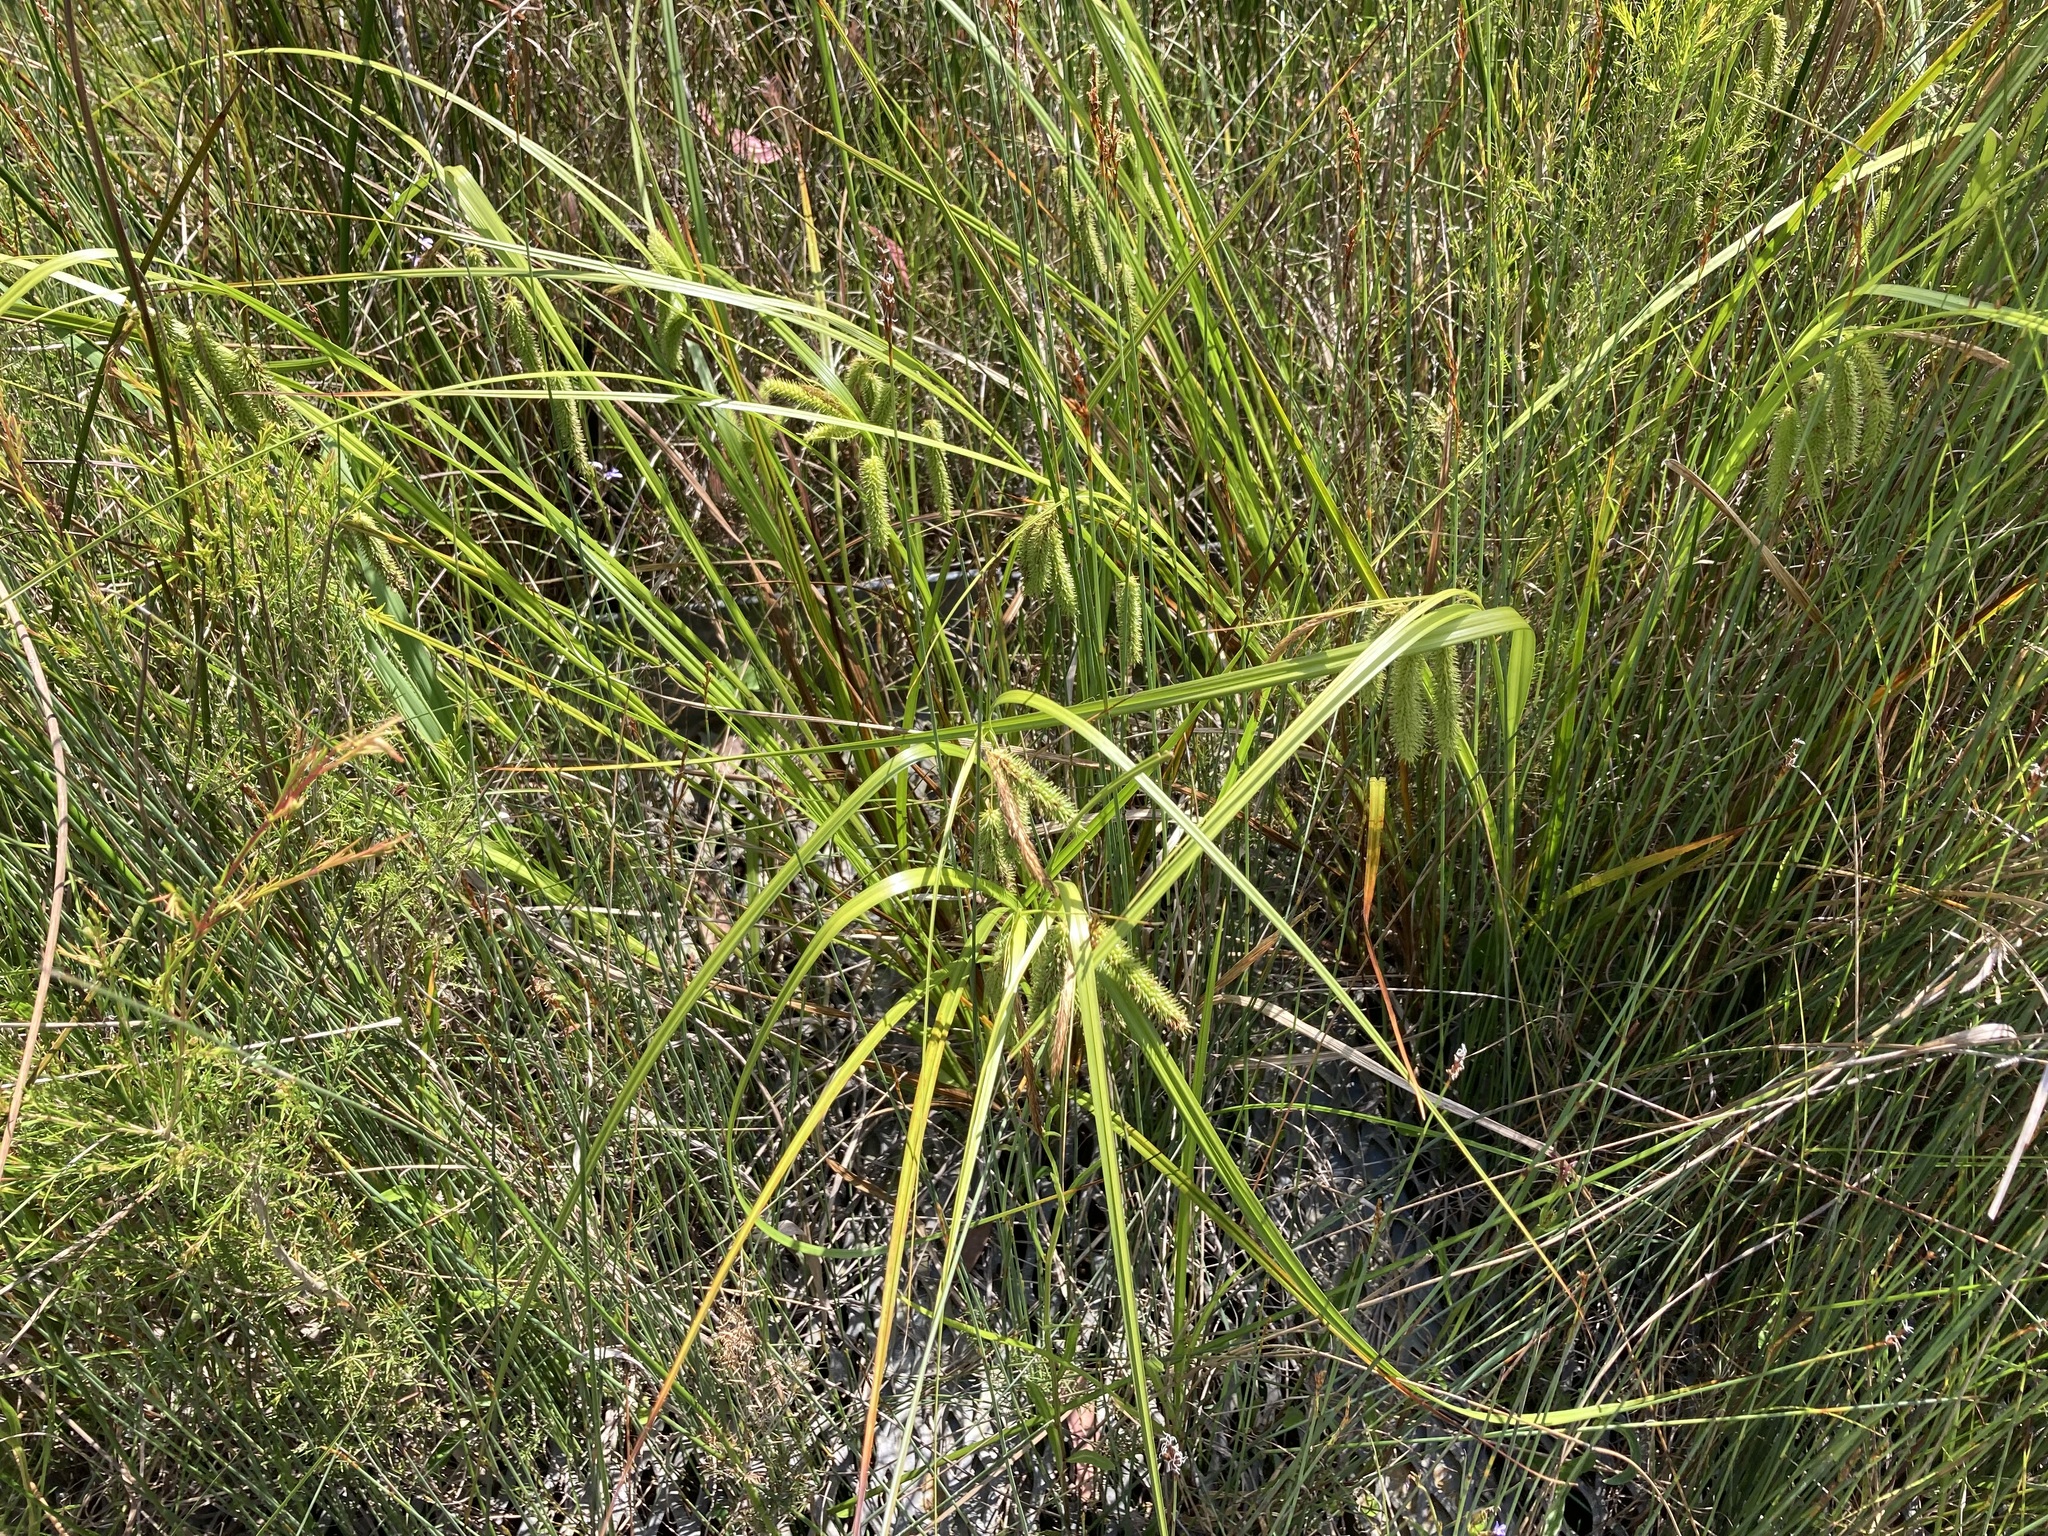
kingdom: Plantae
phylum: Tracheophyta
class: Liliopsida
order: Poales
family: Cyperaceae
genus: Carex
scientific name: Carex fascicularis
